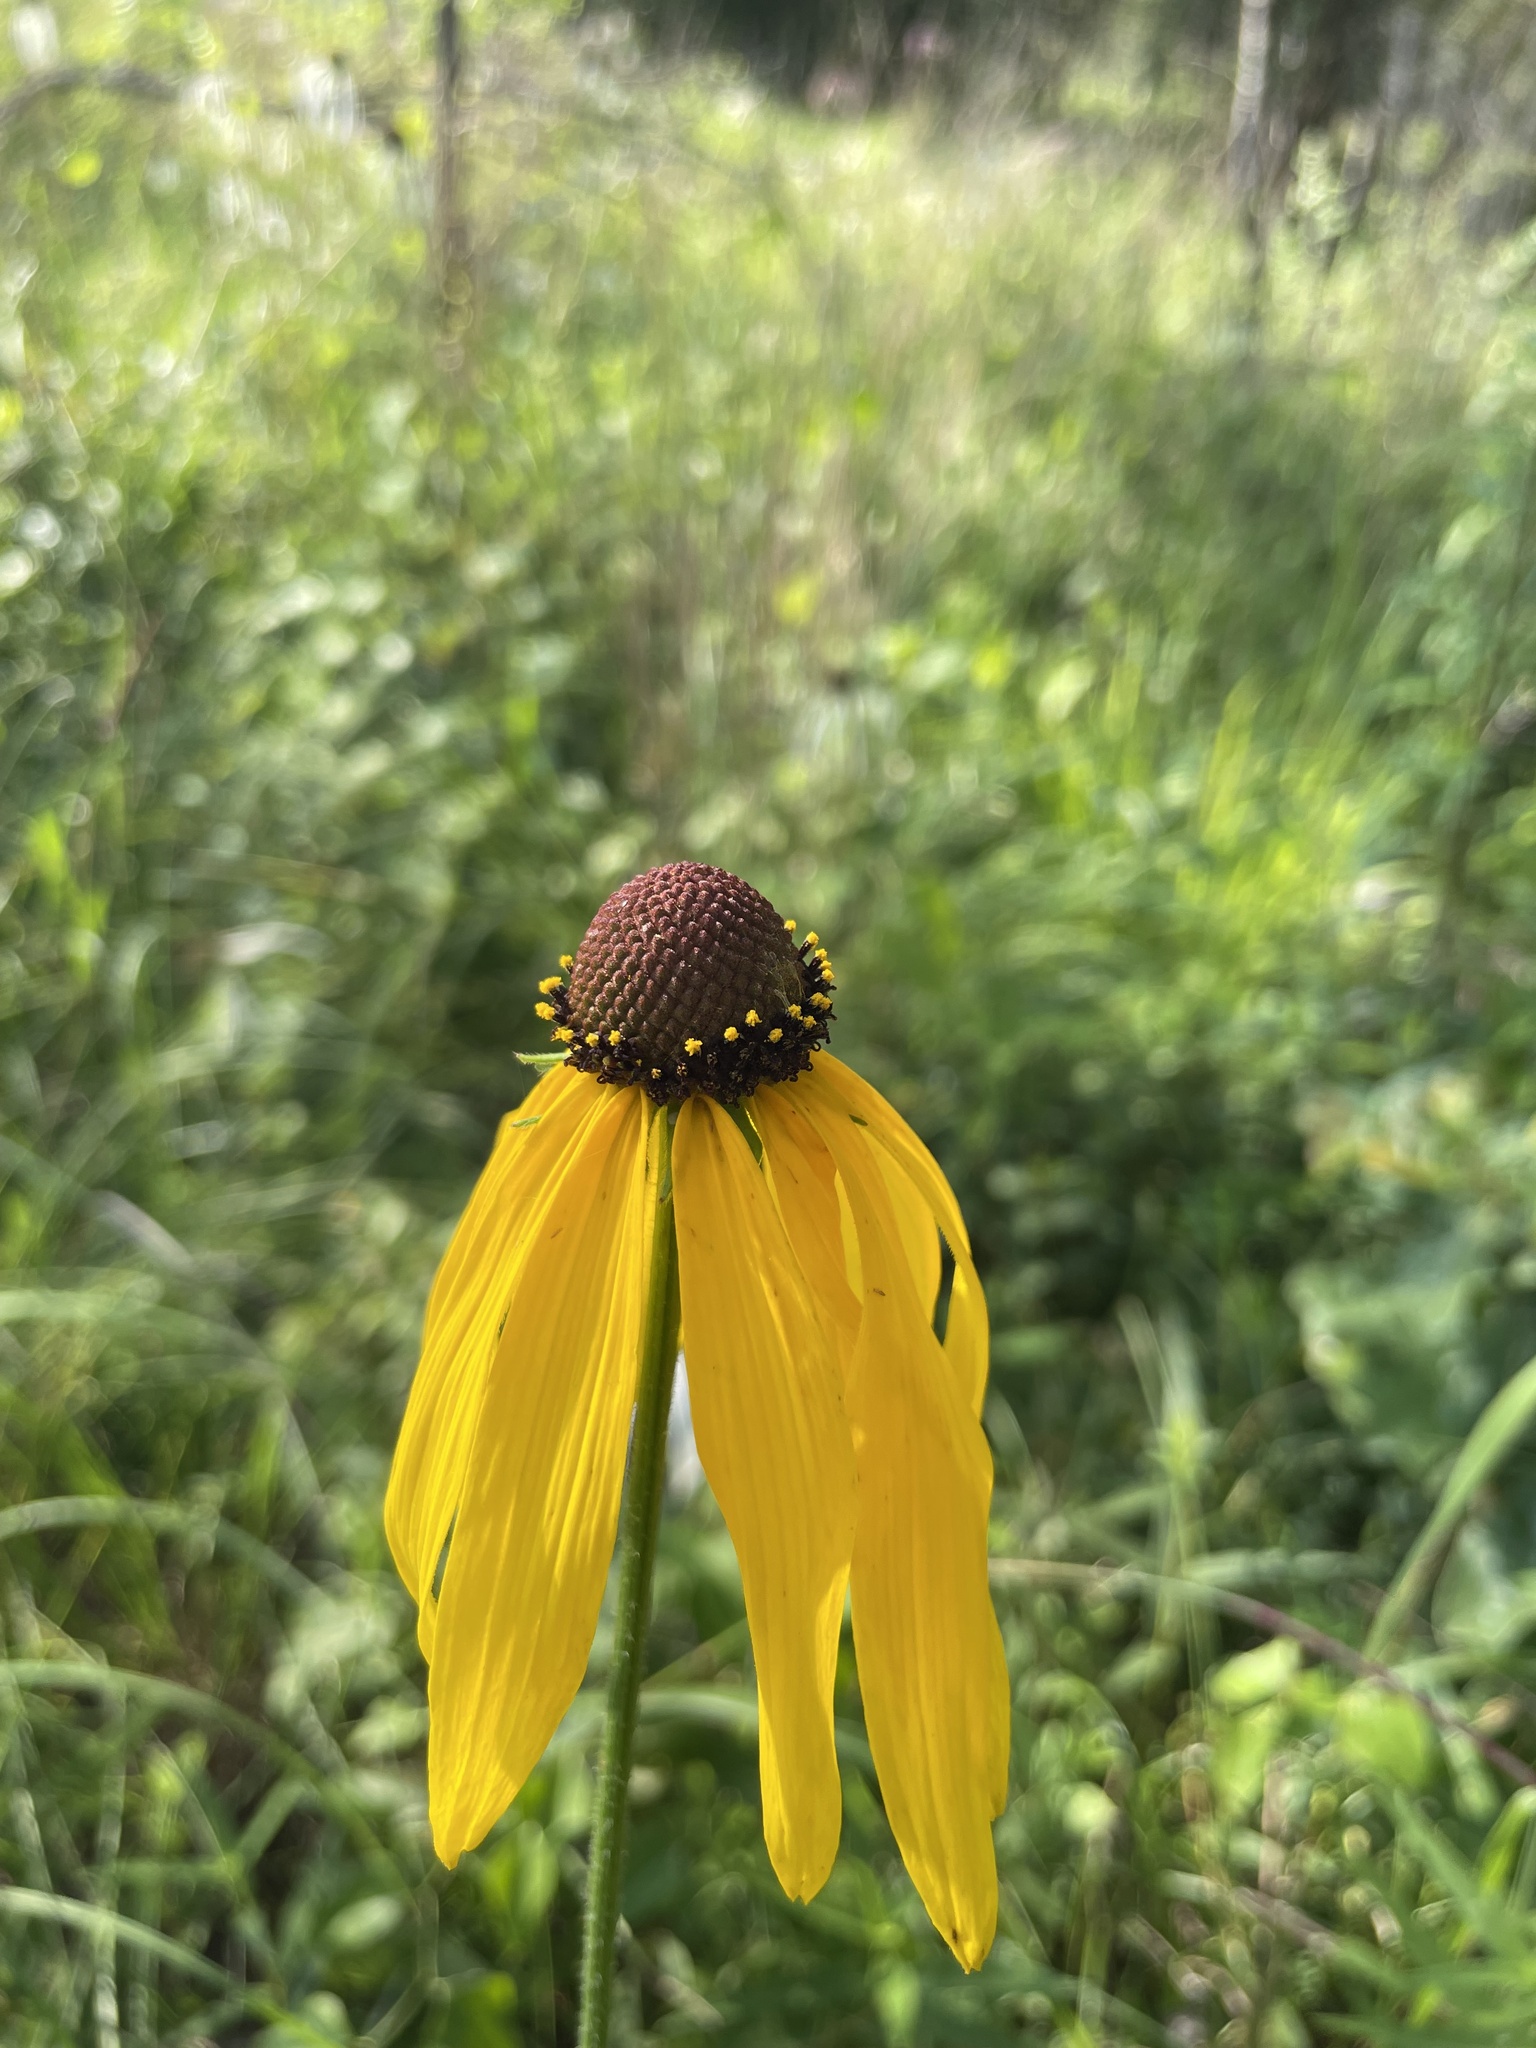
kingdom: Plantae
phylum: Tracheophyta
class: Magnoliopsida
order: Asterales
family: Asteraceae
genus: Rudbeckia
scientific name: Rudbeckia grandiflora
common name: Large-flowered coneflower
